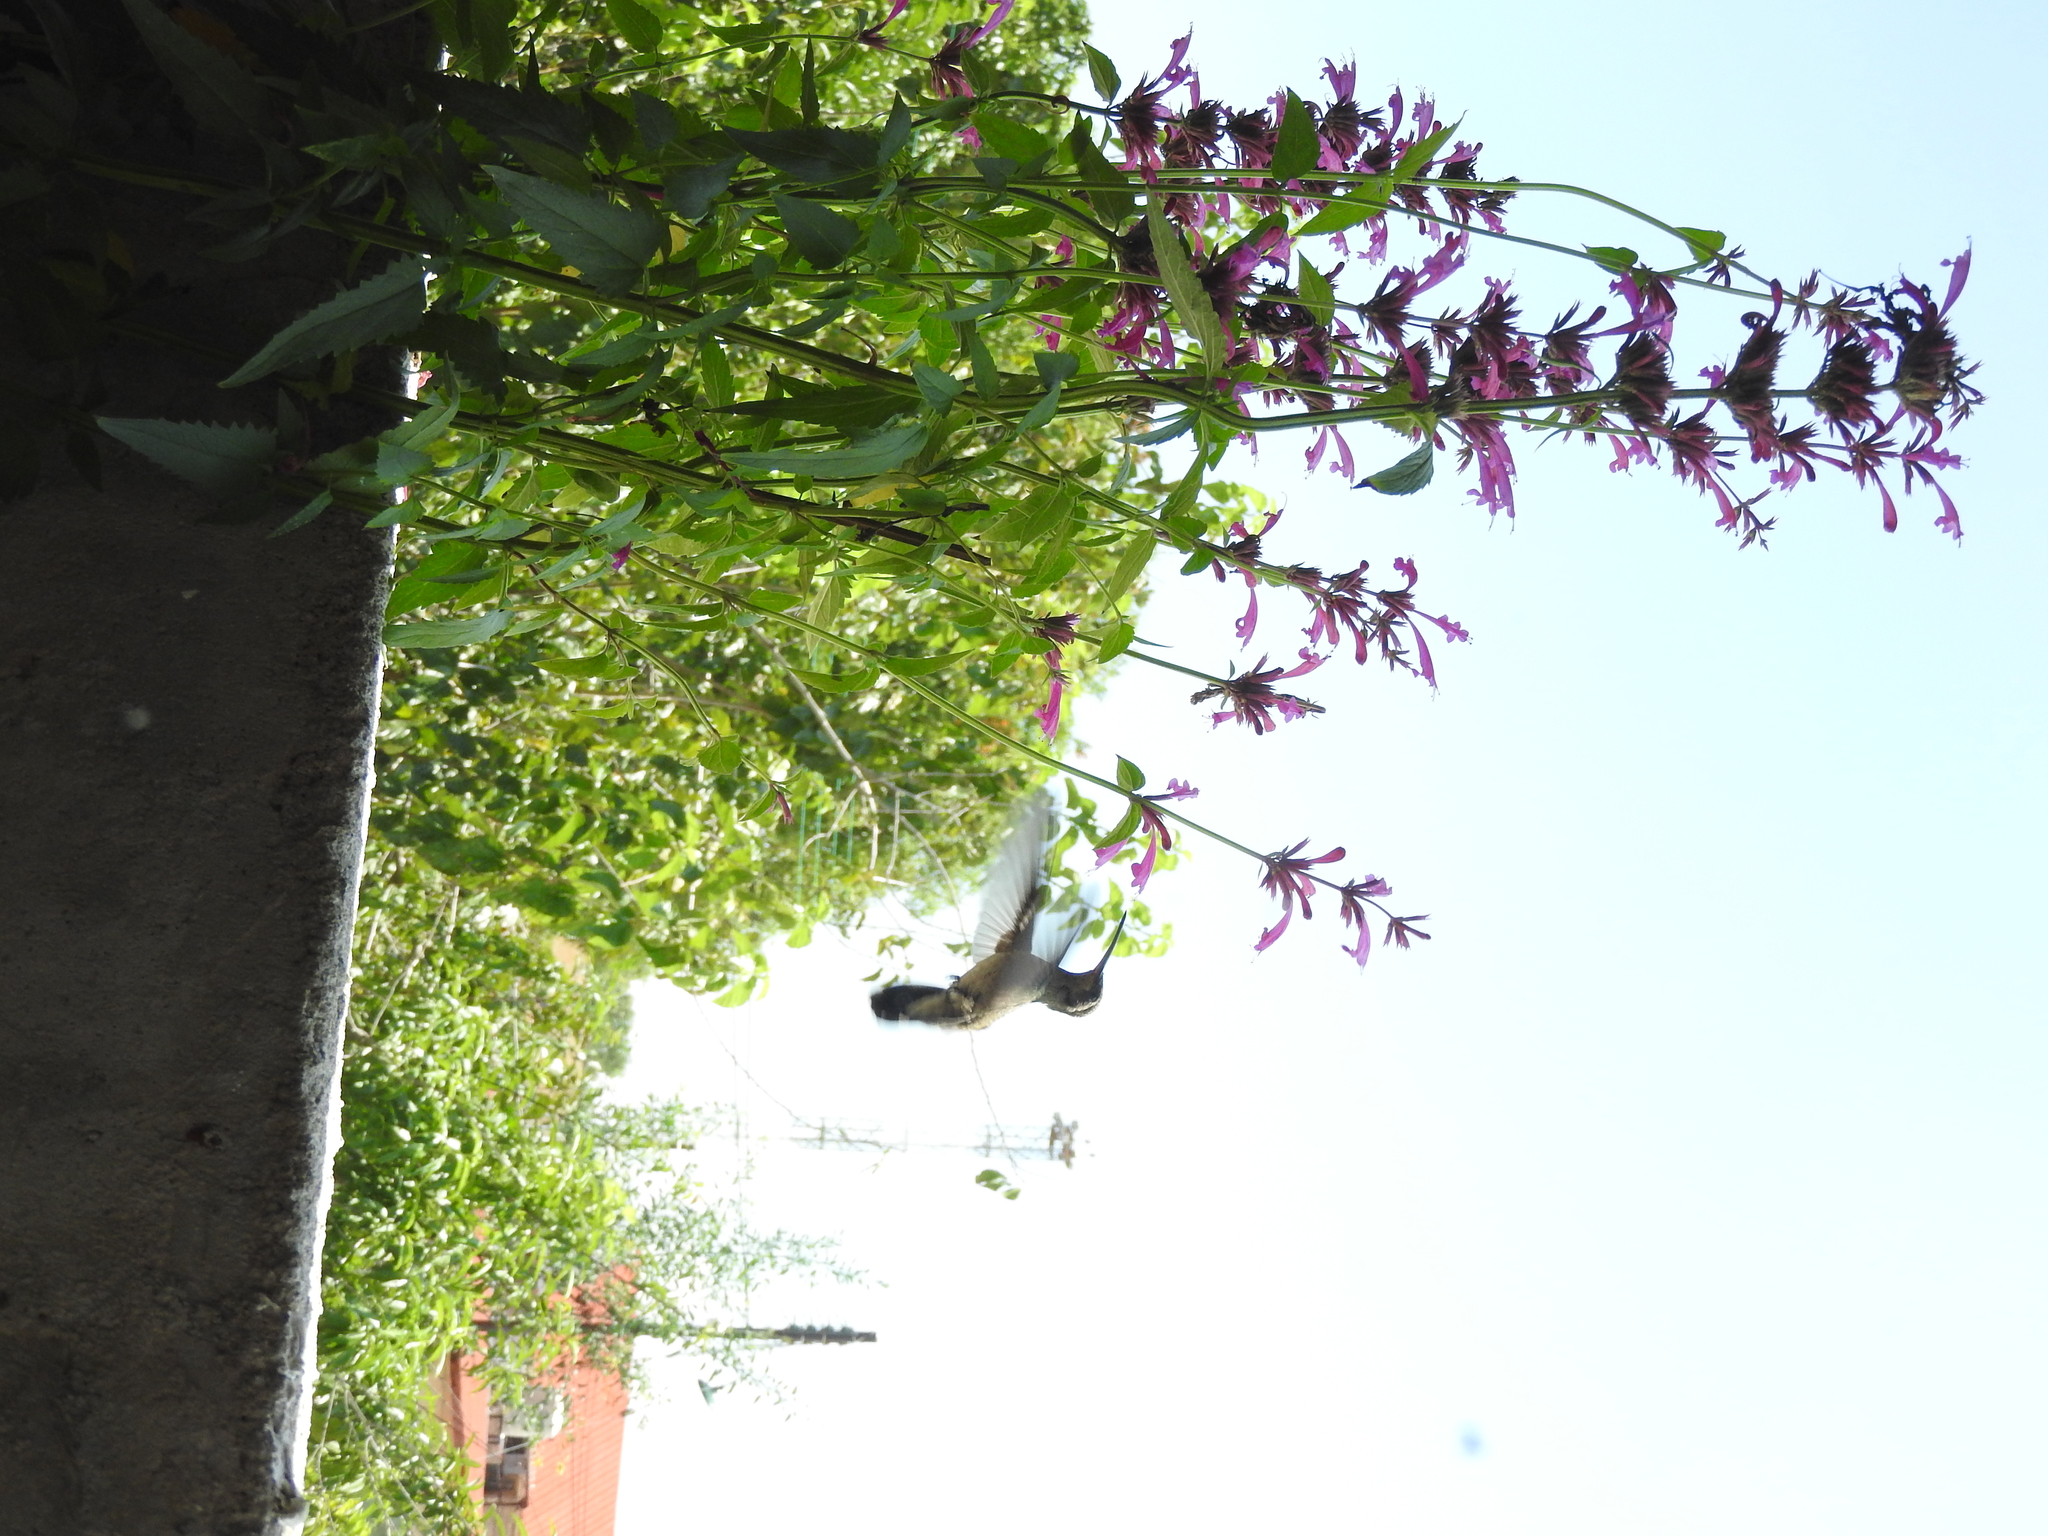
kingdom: Animalia
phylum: Chordata
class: Aves
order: Apodiformes
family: Trochilidae
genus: Cynanthus
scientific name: Cynanthus latirostris
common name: Broad-billed hummingbird
